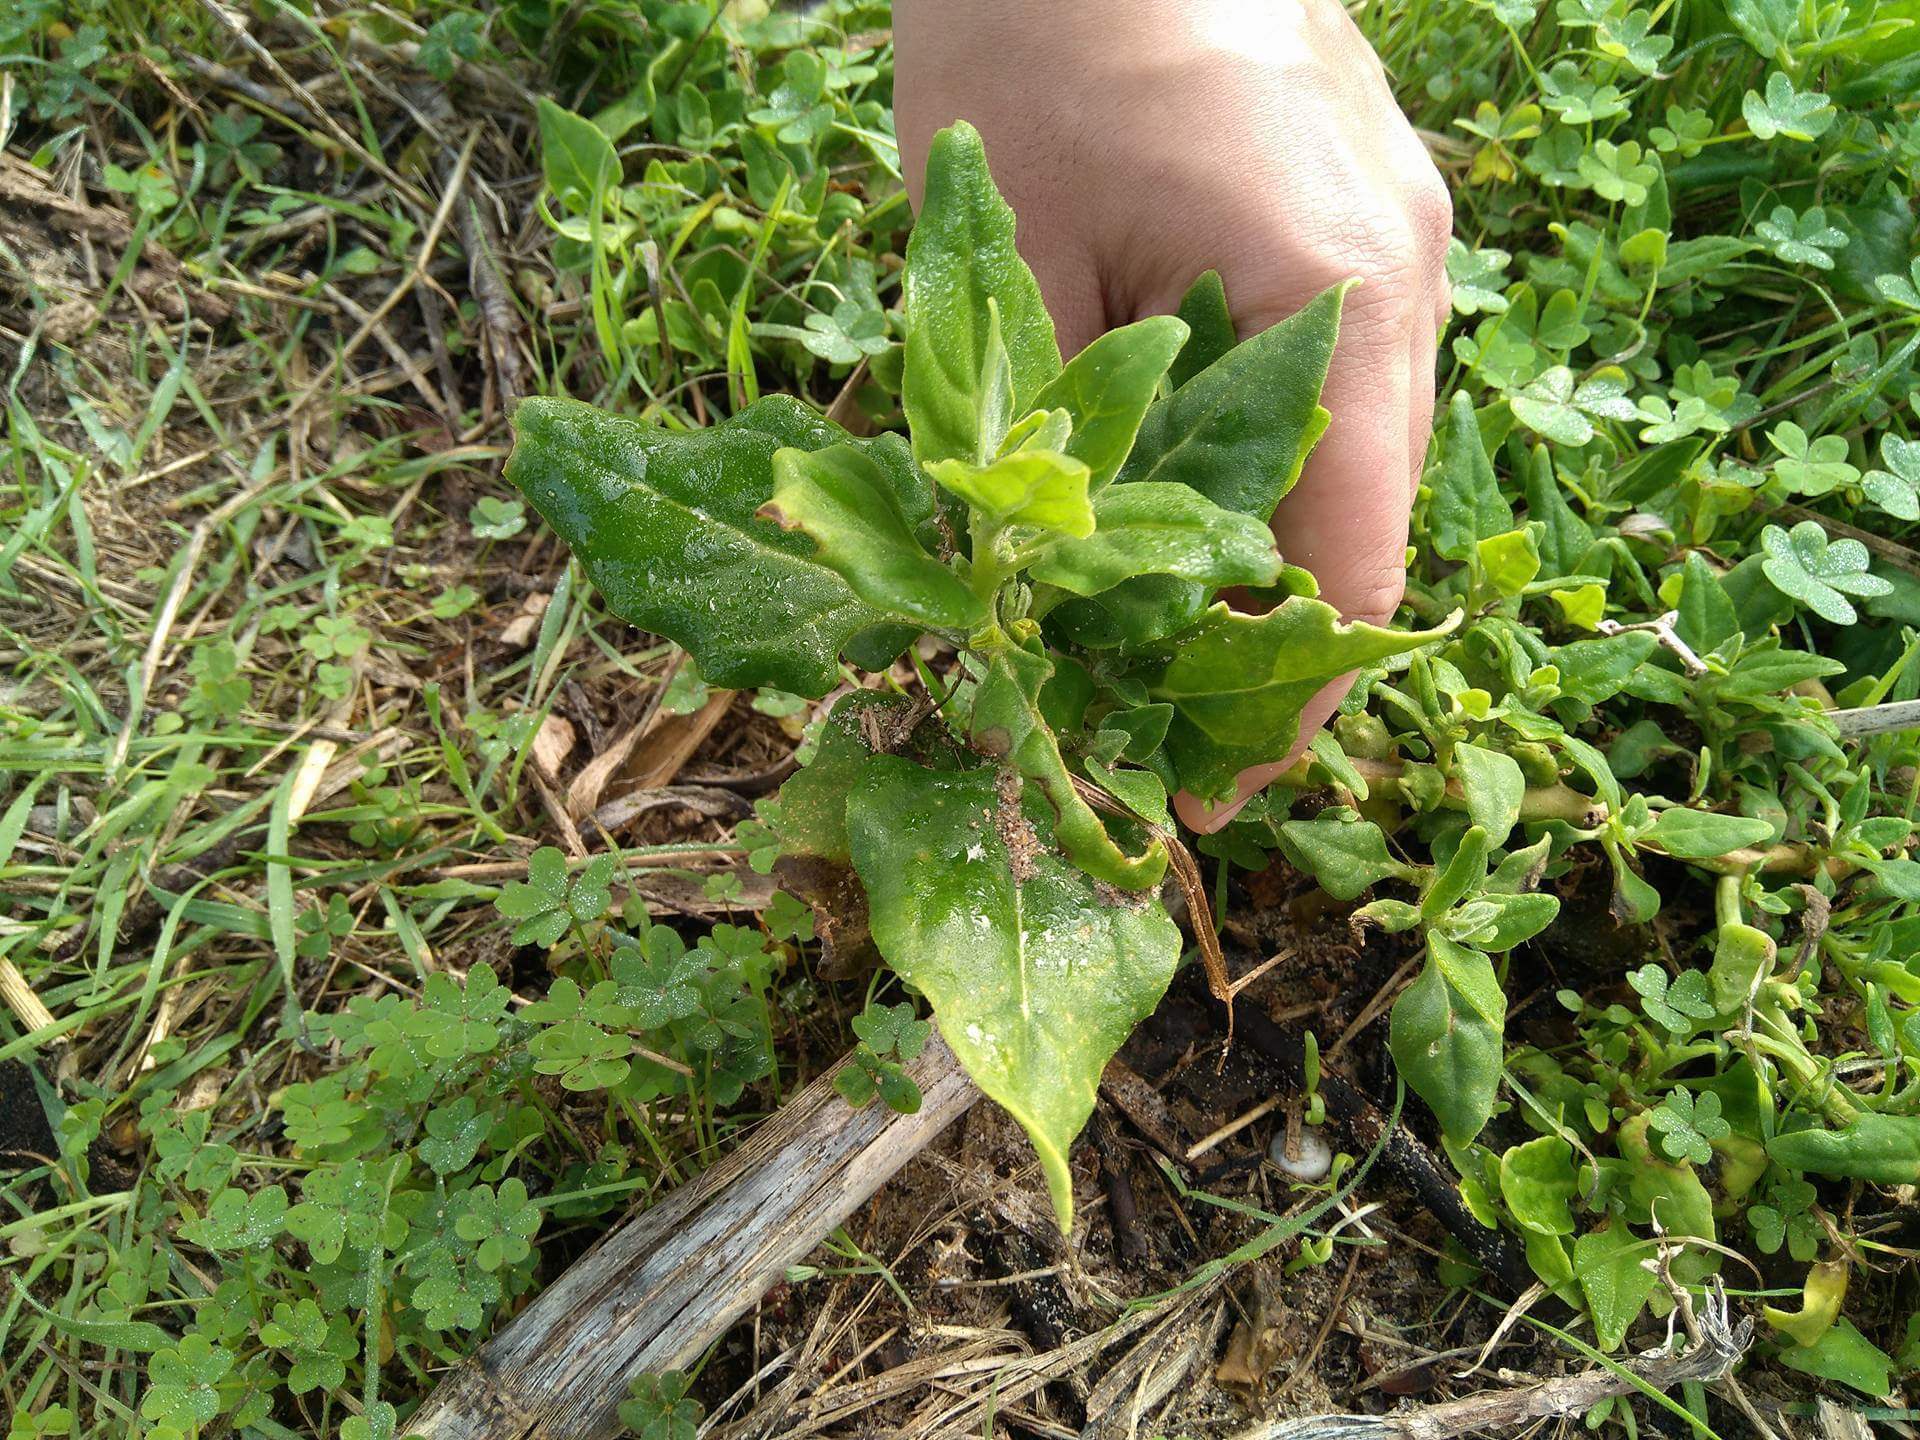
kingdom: Plantae
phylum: Tracheophyta
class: Magnoliopsida
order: Caryophyllales
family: Aizoaceae
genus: Tetragonia
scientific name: Tetragonia tetragonoides
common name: New zealand-spinach
